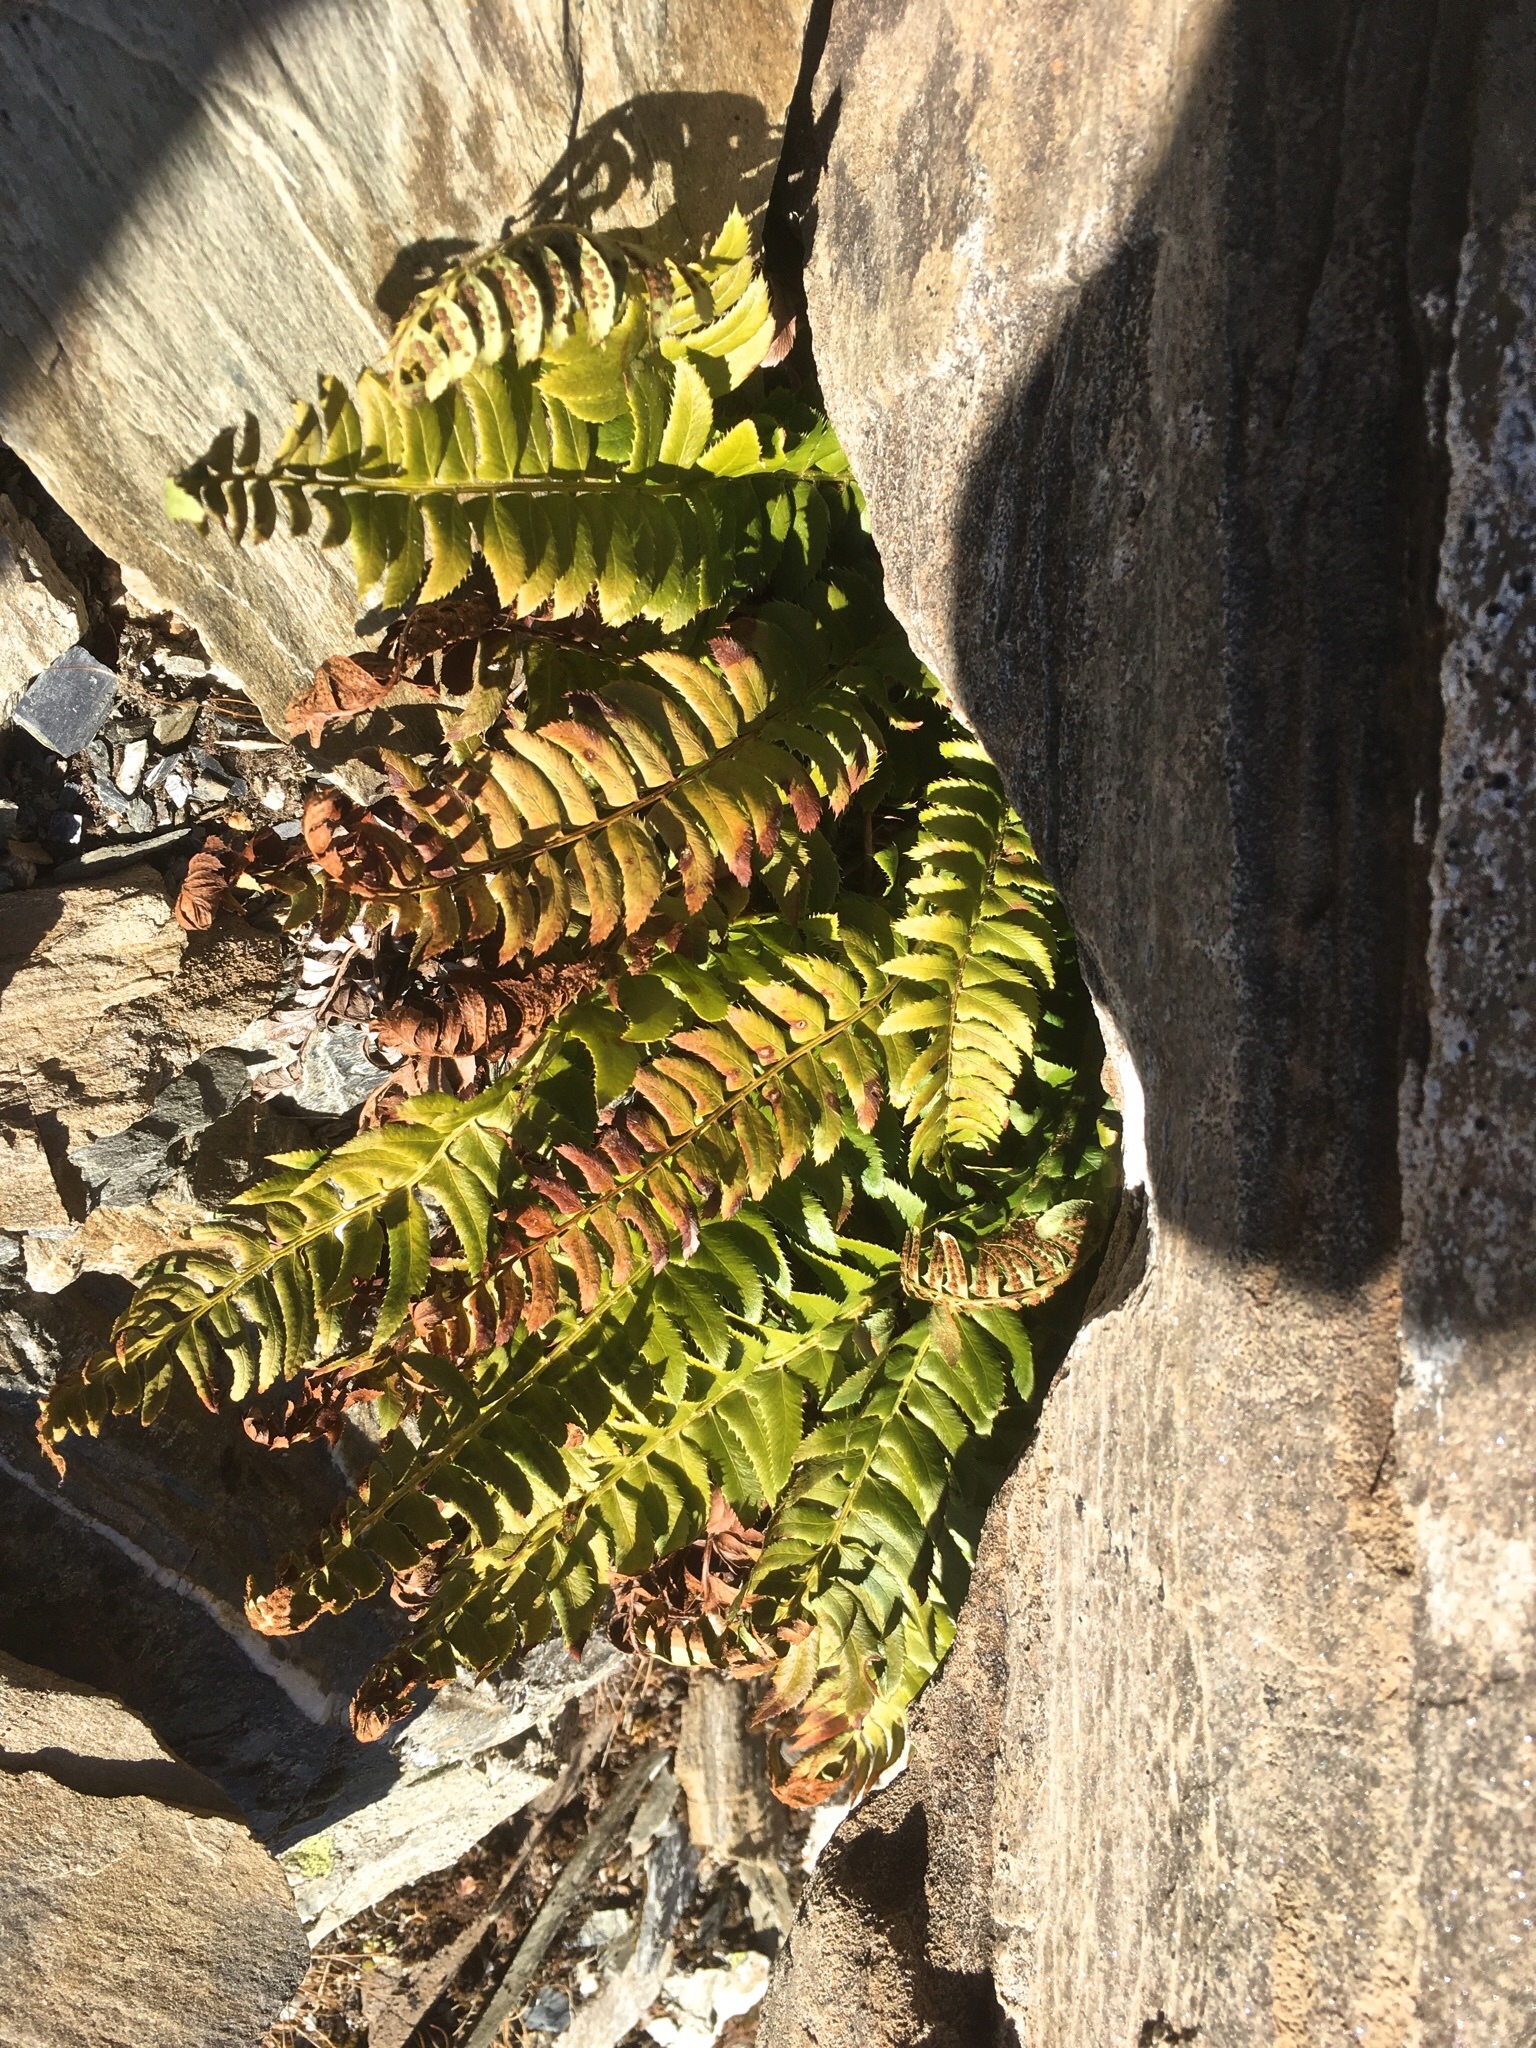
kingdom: Plantae
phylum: Tracheophyta
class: Polypodiopsida
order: Polypodiales
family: Dryopteridaceae
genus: Polystichum
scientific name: Polystichum lonchitis
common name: Holly fern
